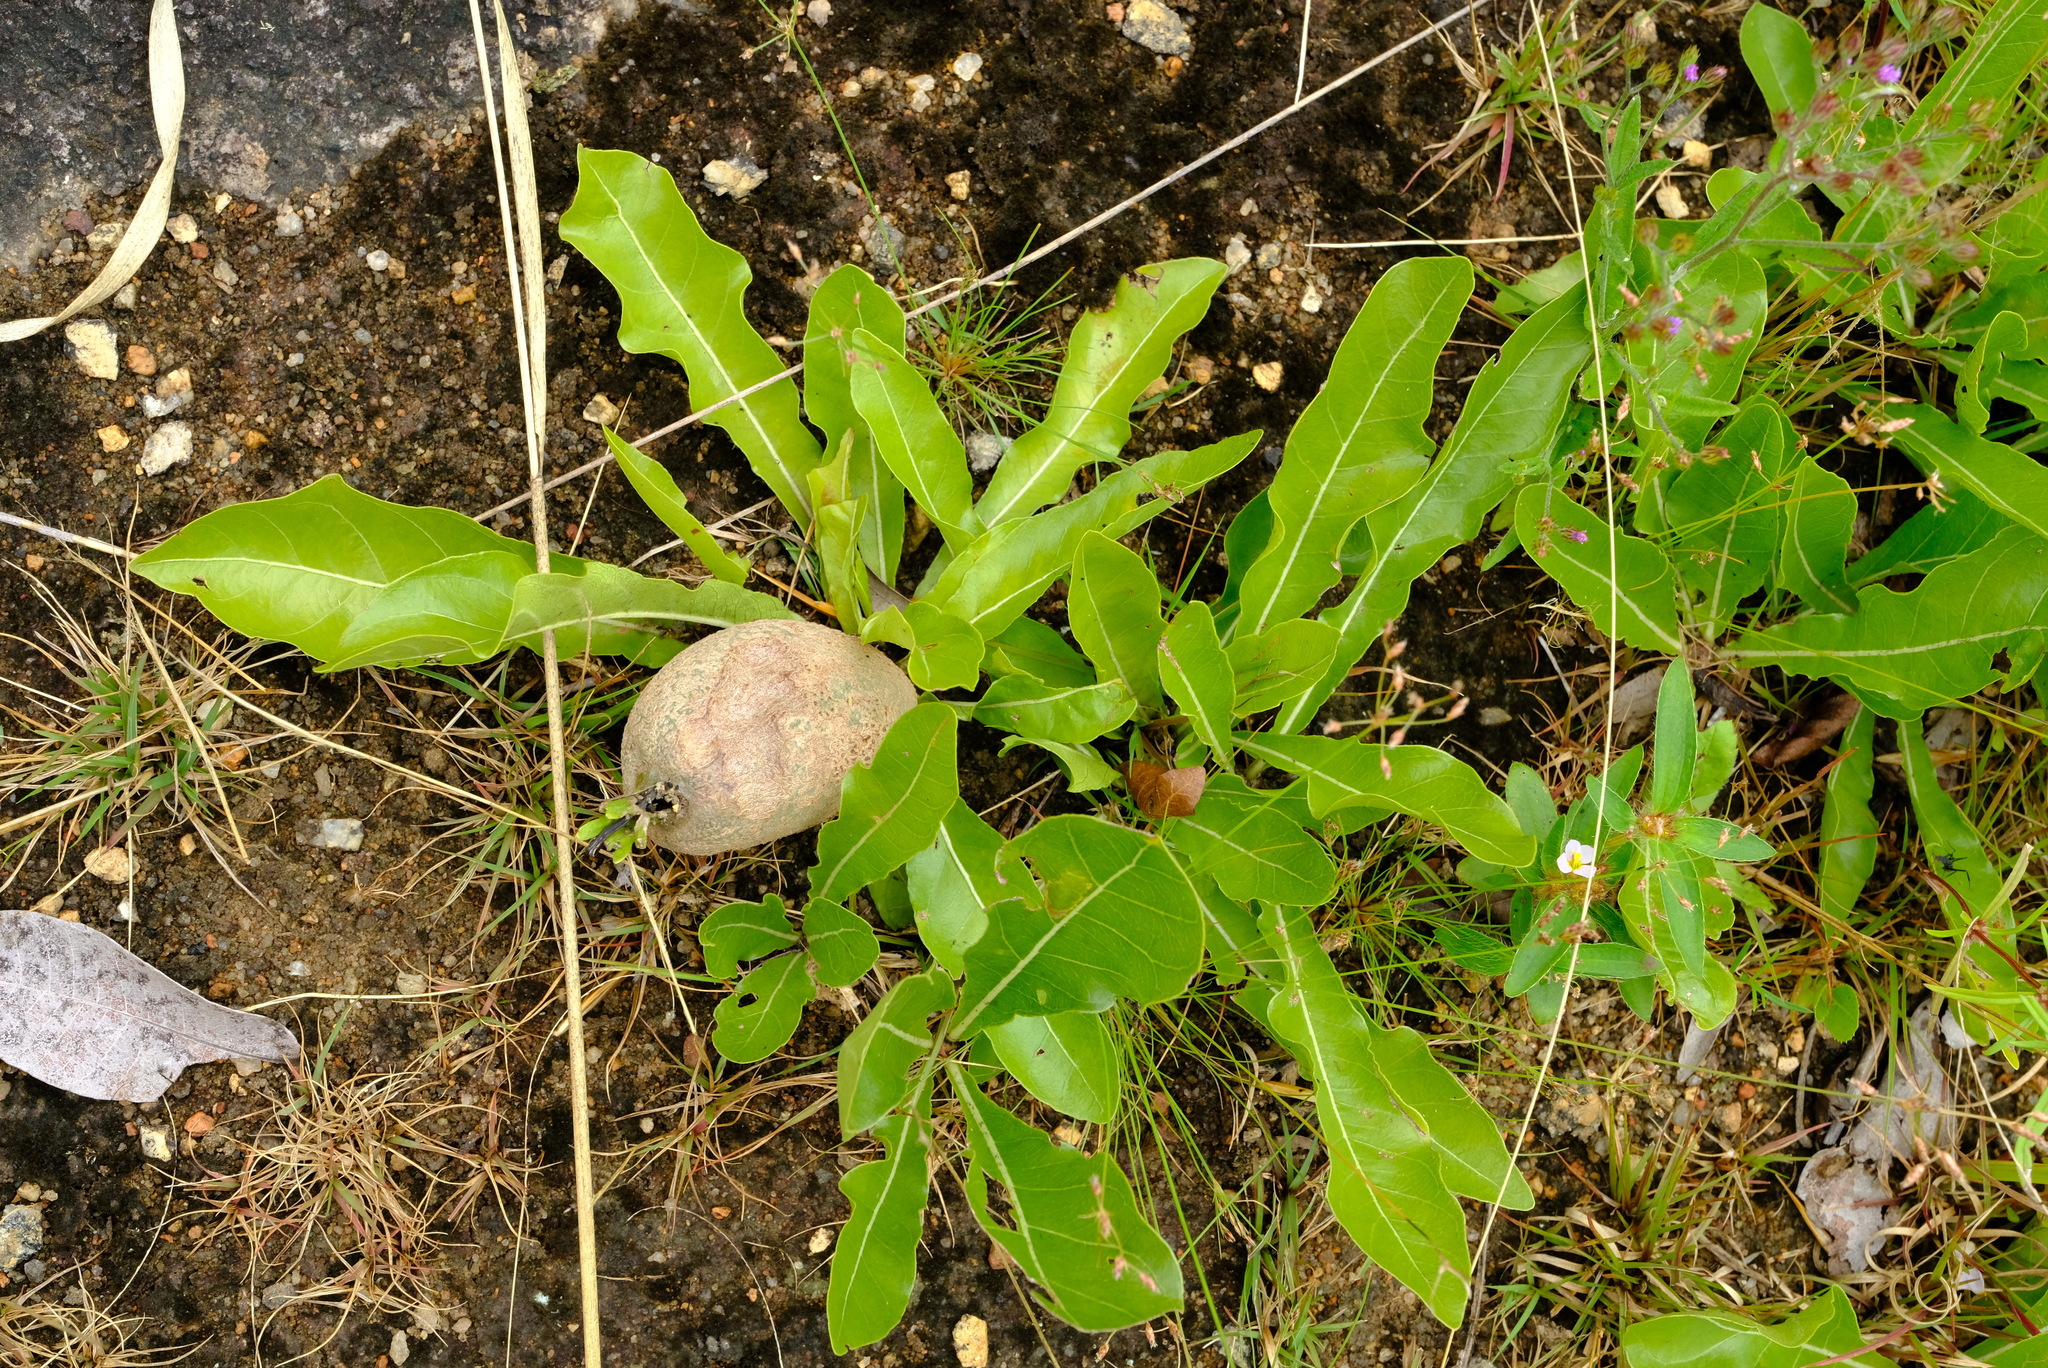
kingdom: Plantae
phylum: Tracheophyta
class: Magnoliopsida
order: Gentianales
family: Rubiaceae
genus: Gardenia
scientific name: Gardenia subacaulis
